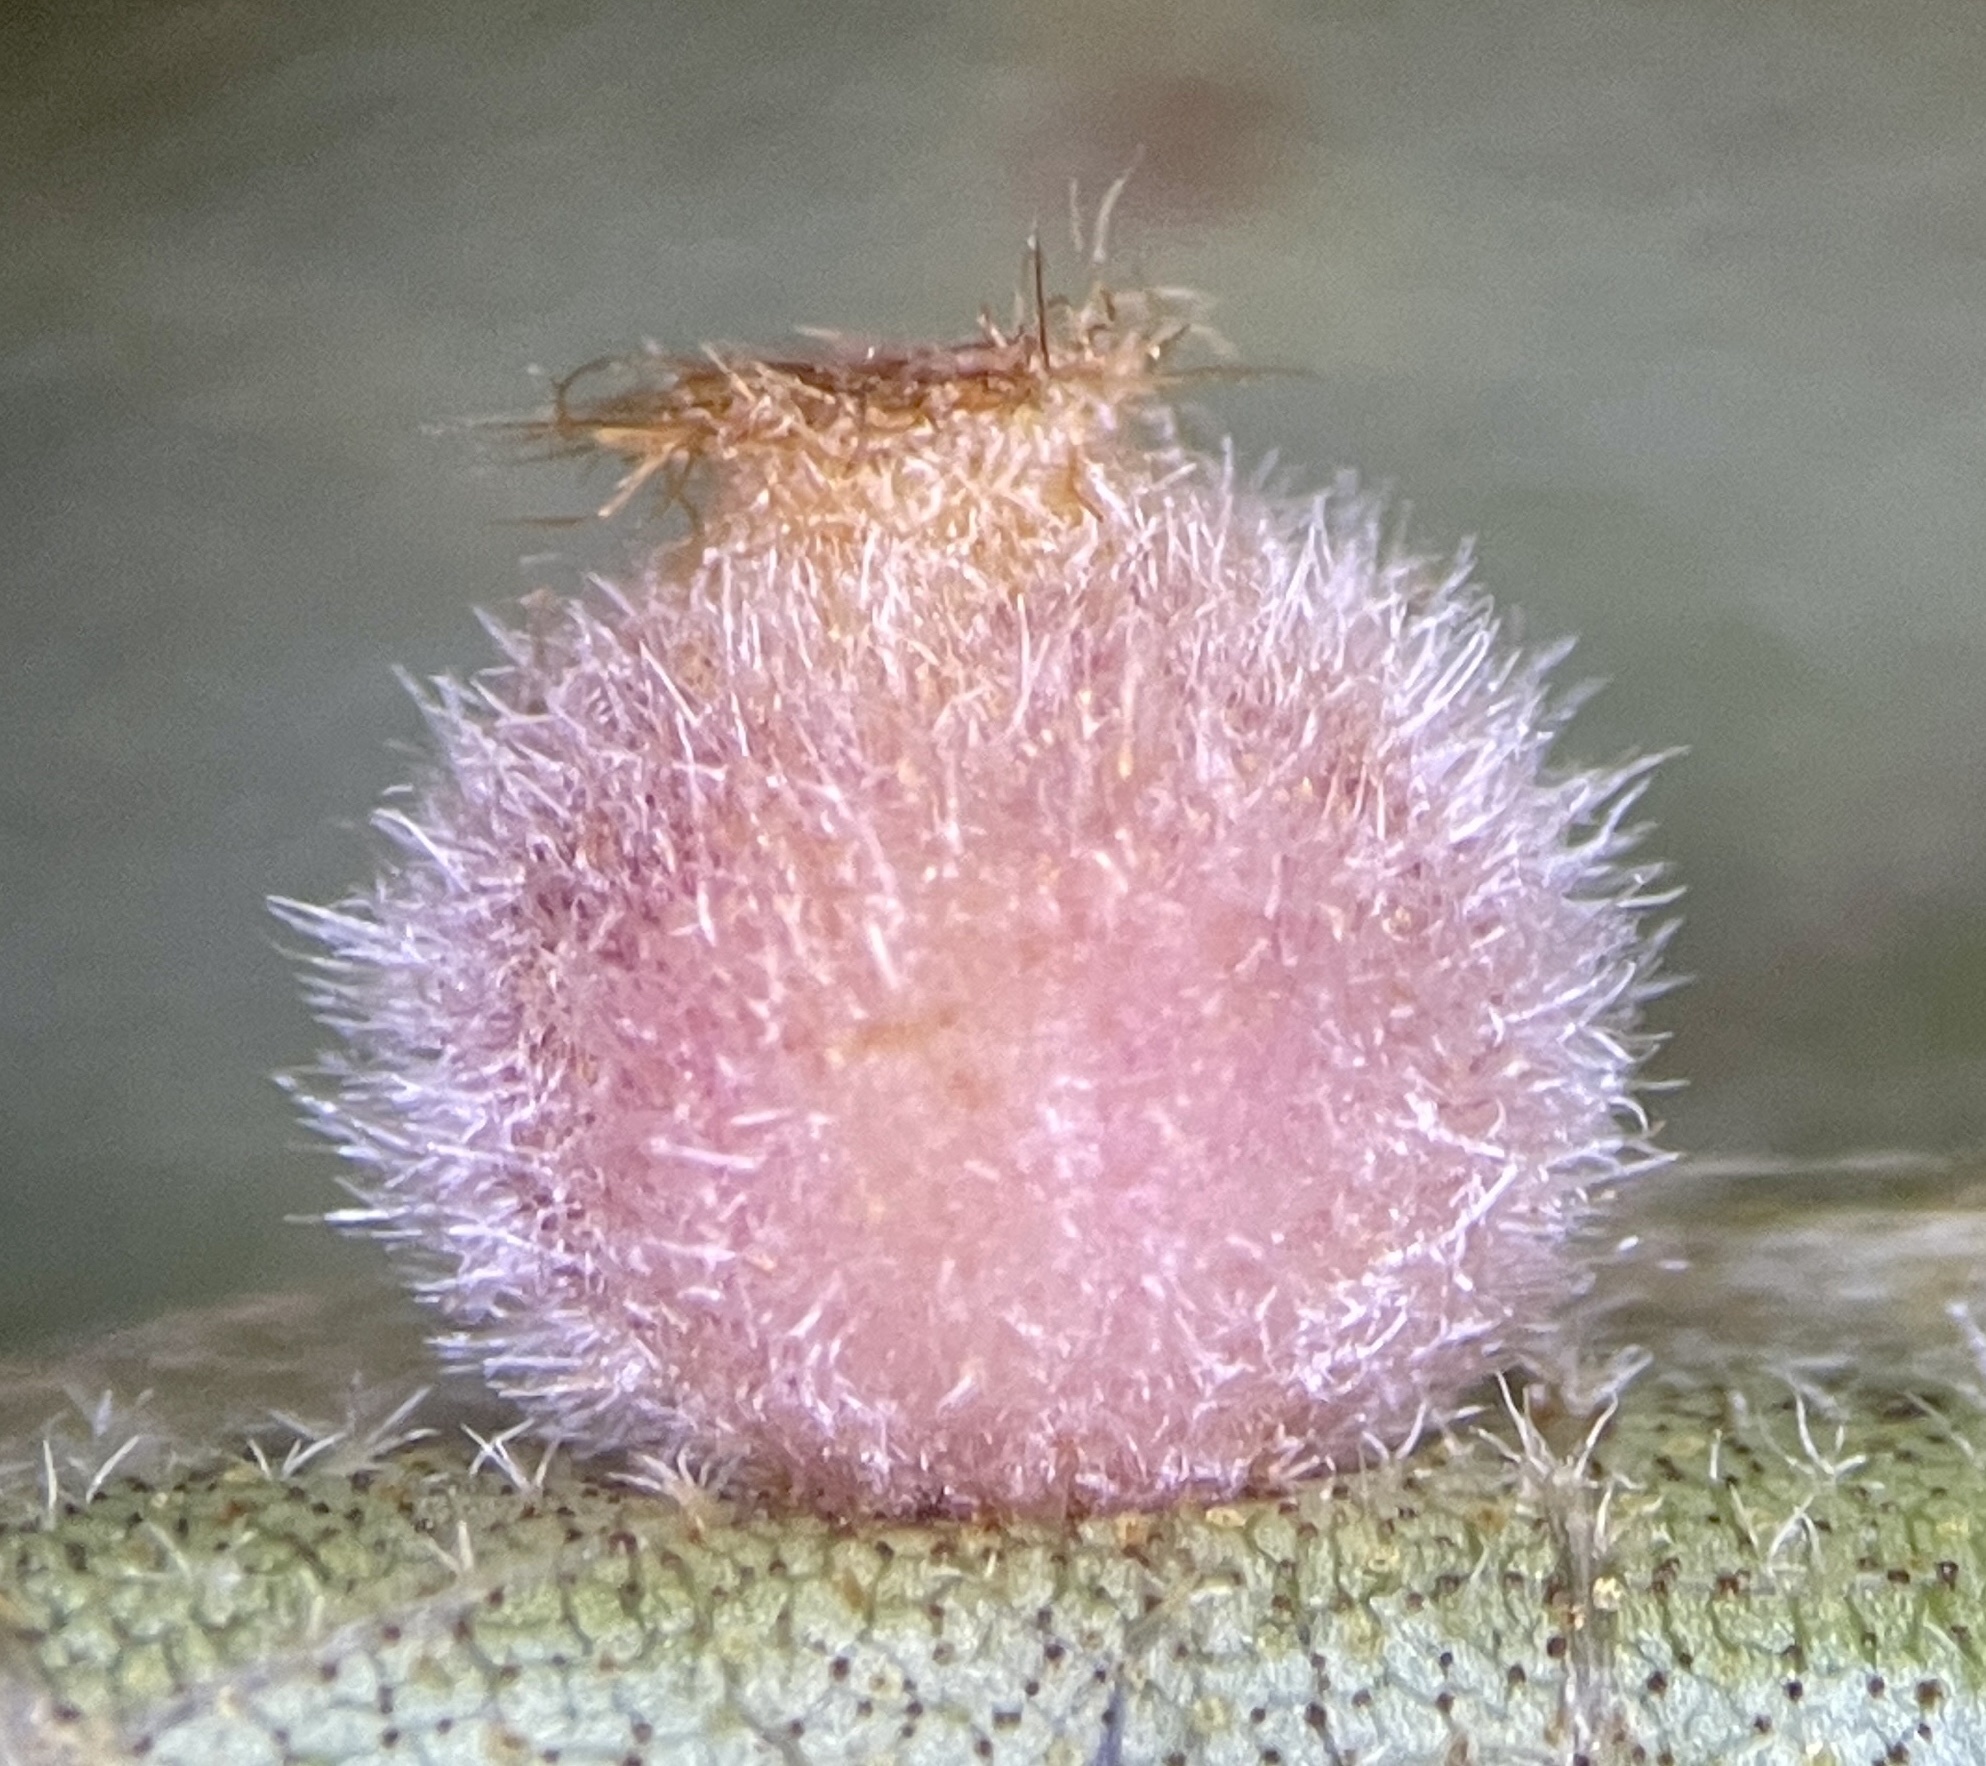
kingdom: Animalia
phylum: Arthropoda
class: Insecta
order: Diptera
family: Cecidomyiidae
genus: Caryomyia
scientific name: Caryomyia hirtidolium
